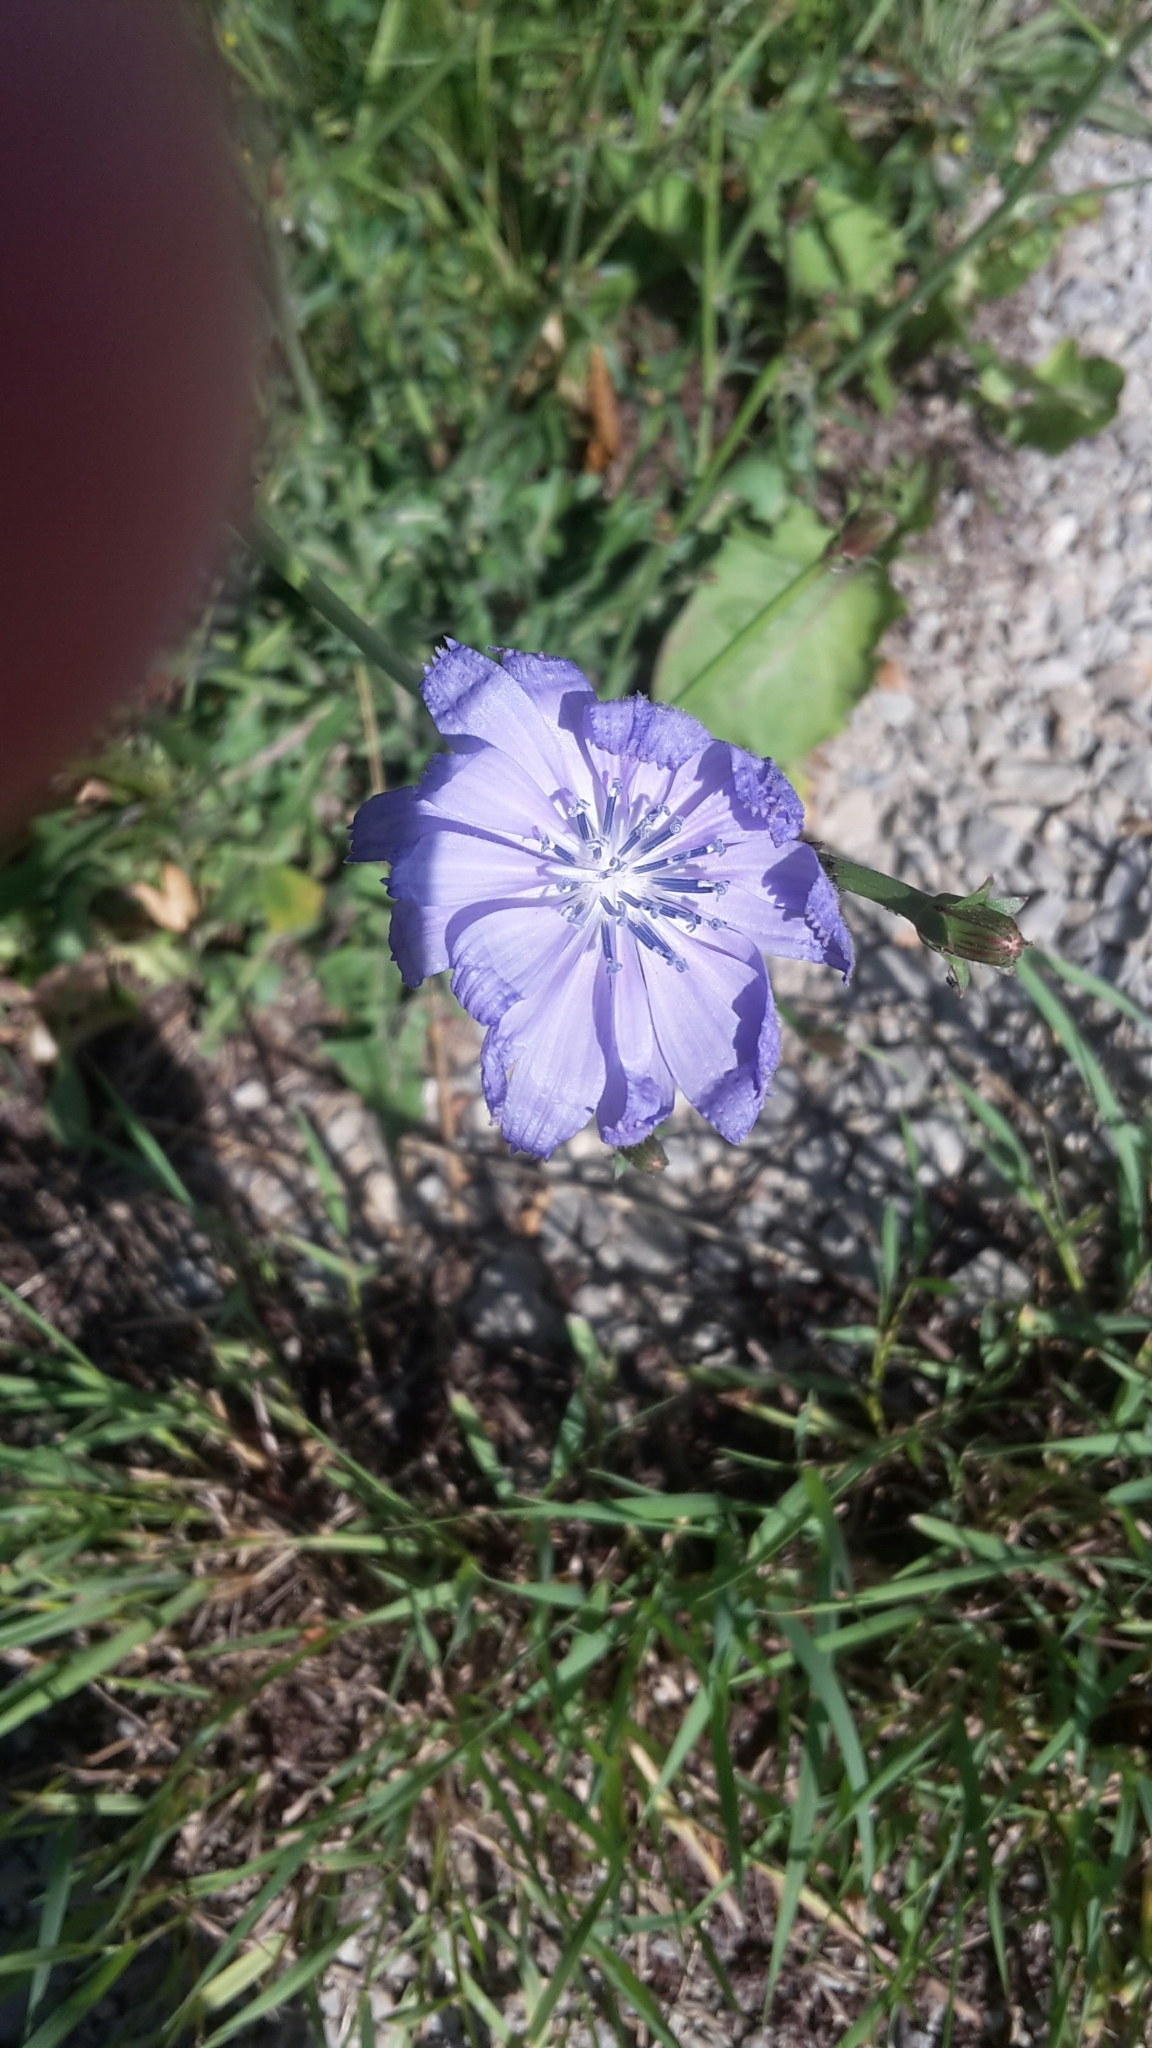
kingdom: Plantae
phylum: Tracheophyta
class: Magnoliopsida
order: Asterales
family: Asteraceae
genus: Cichorium
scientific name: Cichorium intybus
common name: Chicory
